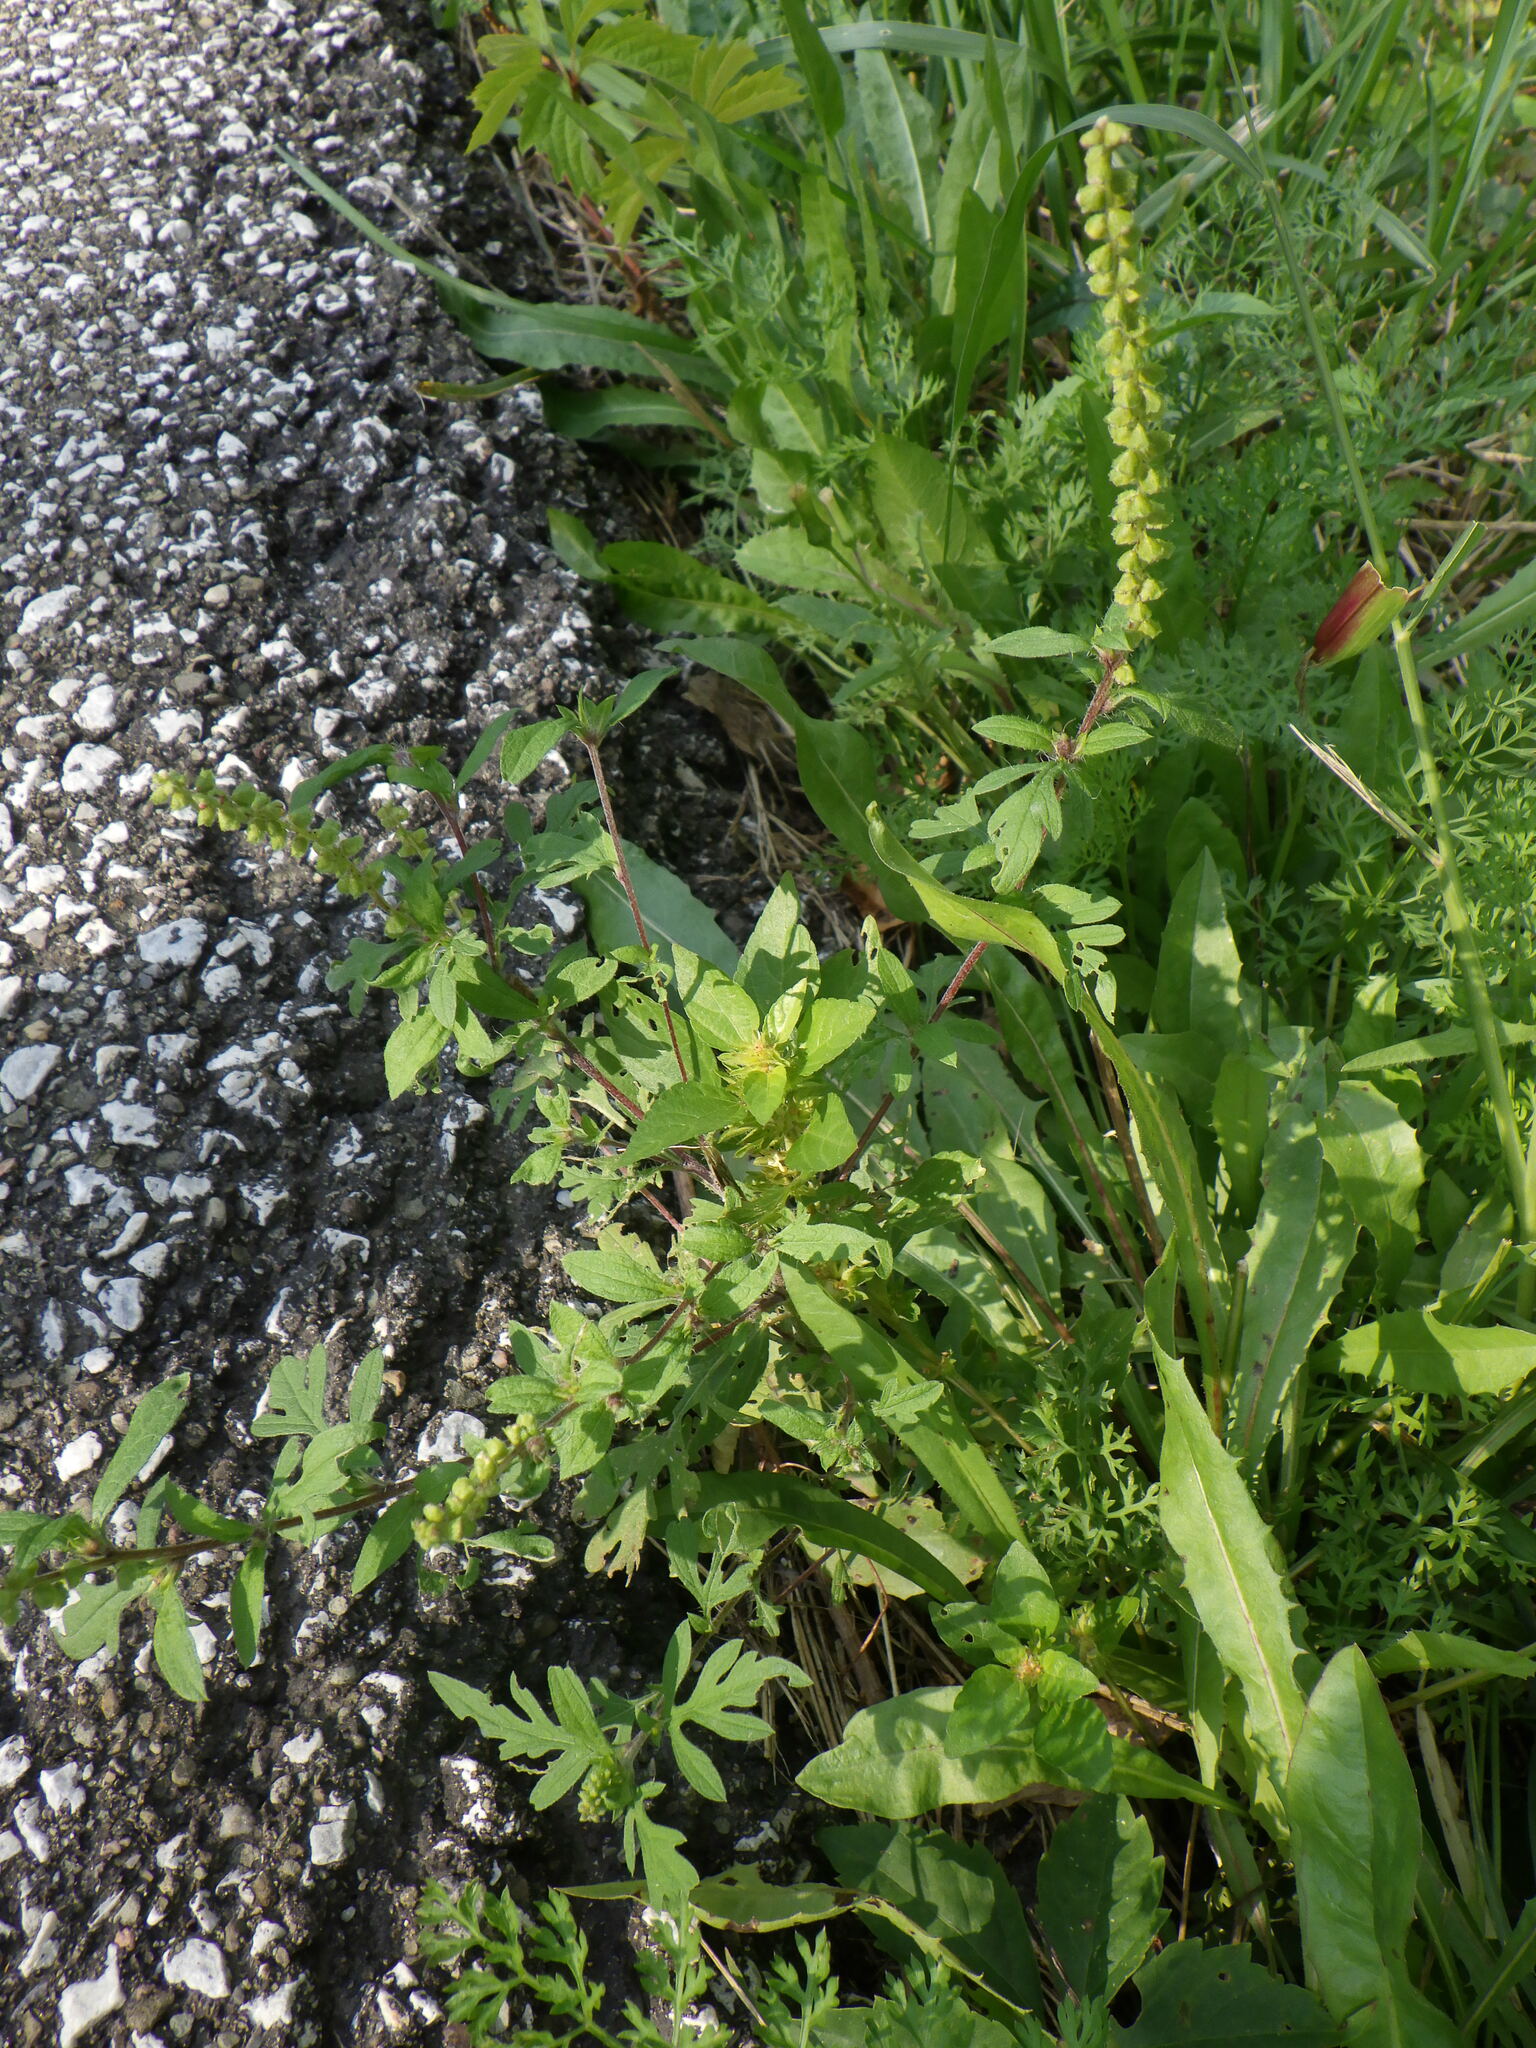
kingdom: Plantae
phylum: Tracheophyta
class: Magnoliopsida
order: Asterales
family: Asteraceae
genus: Ambrosia
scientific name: Ambrosia artemisiifolia
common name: Annual ragweed
